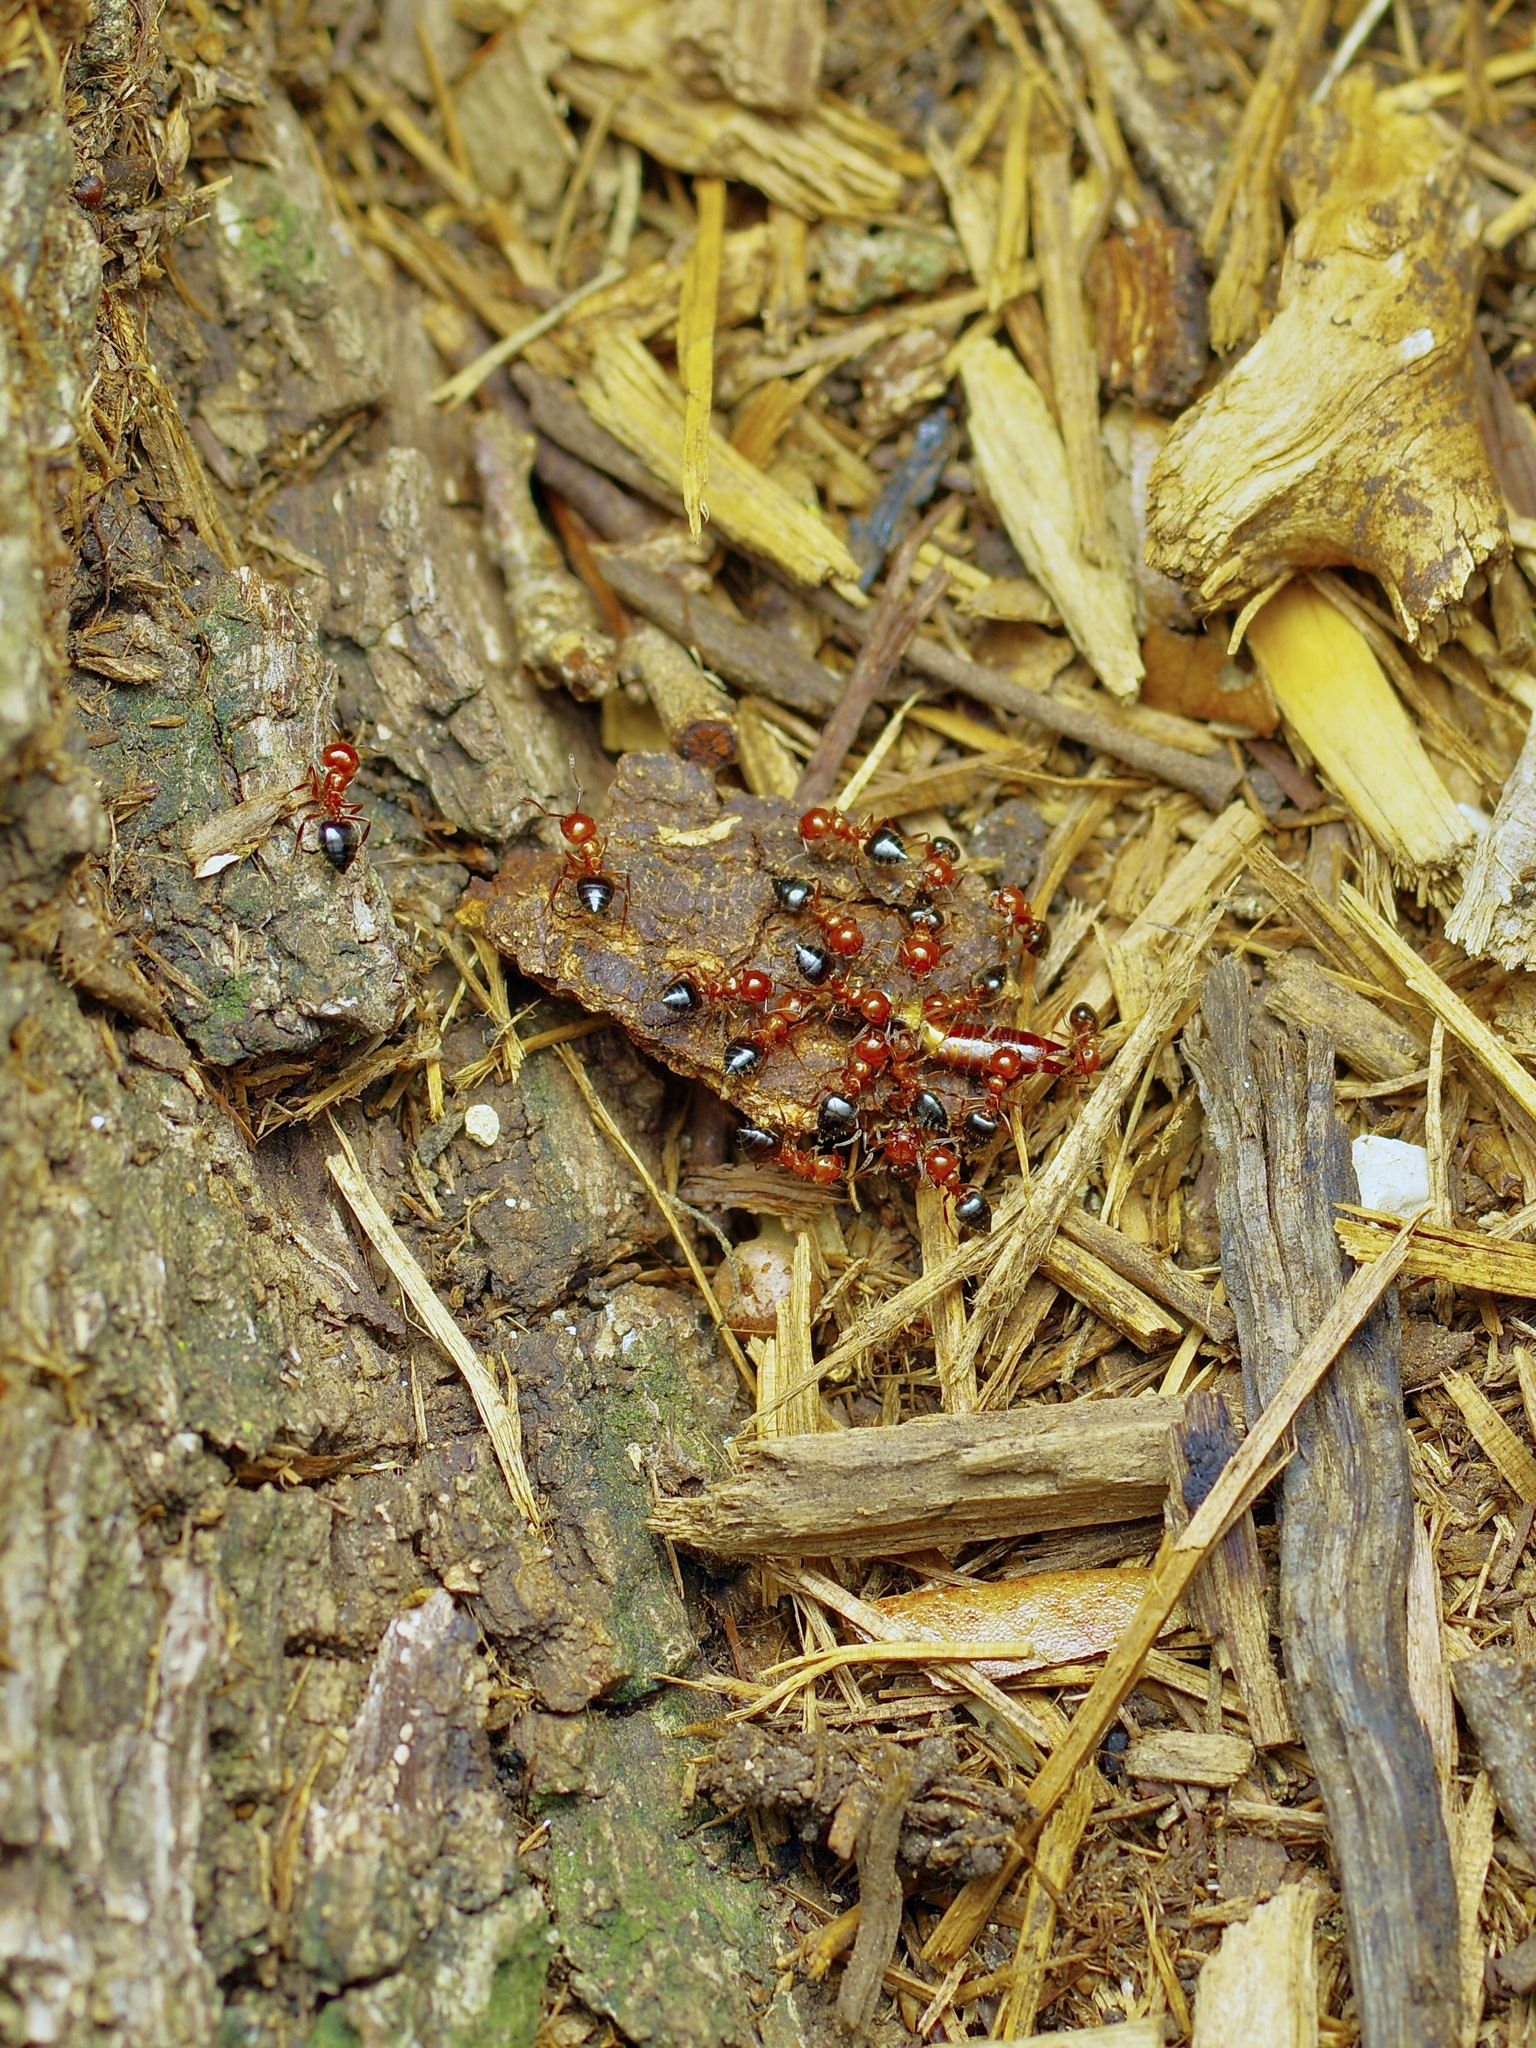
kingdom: Animalia
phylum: Arthropoda
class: Insecta
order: Hymenoptera
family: Formicidae
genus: Crematogaster
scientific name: Crematogaster laeviuscula
